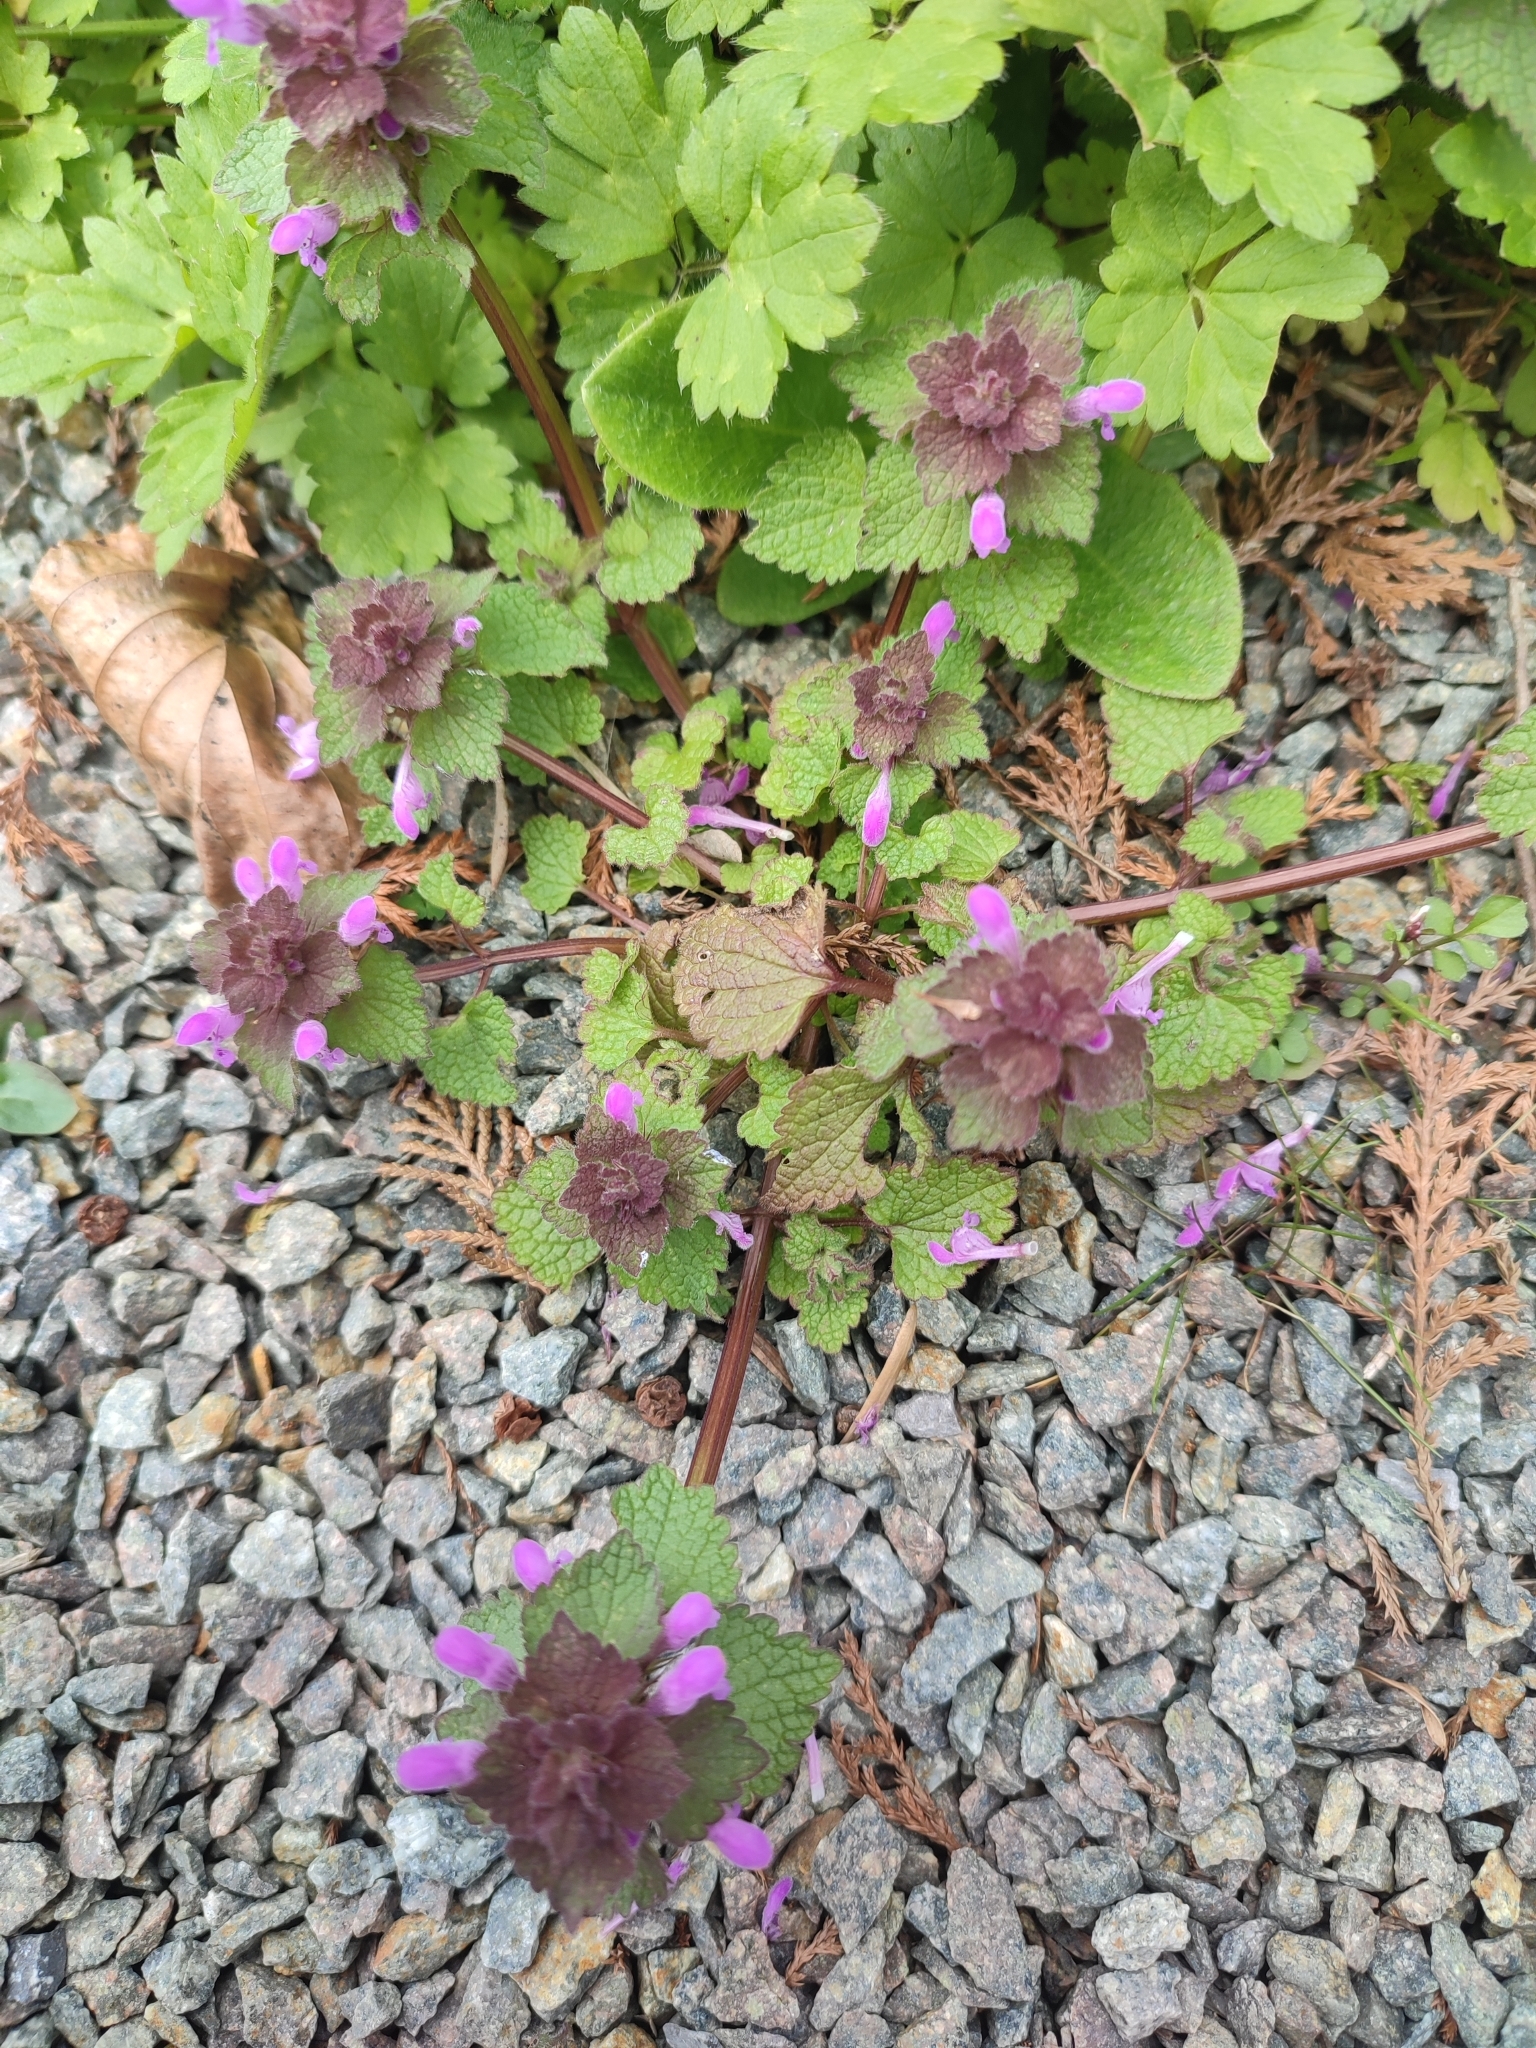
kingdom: Plantae
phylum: Tracheophyta
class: Magnoliopsida
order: Lamiales
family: Lamiaceae
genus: Lamium
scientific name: Lamium purpureum
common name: Red dead-nettle
